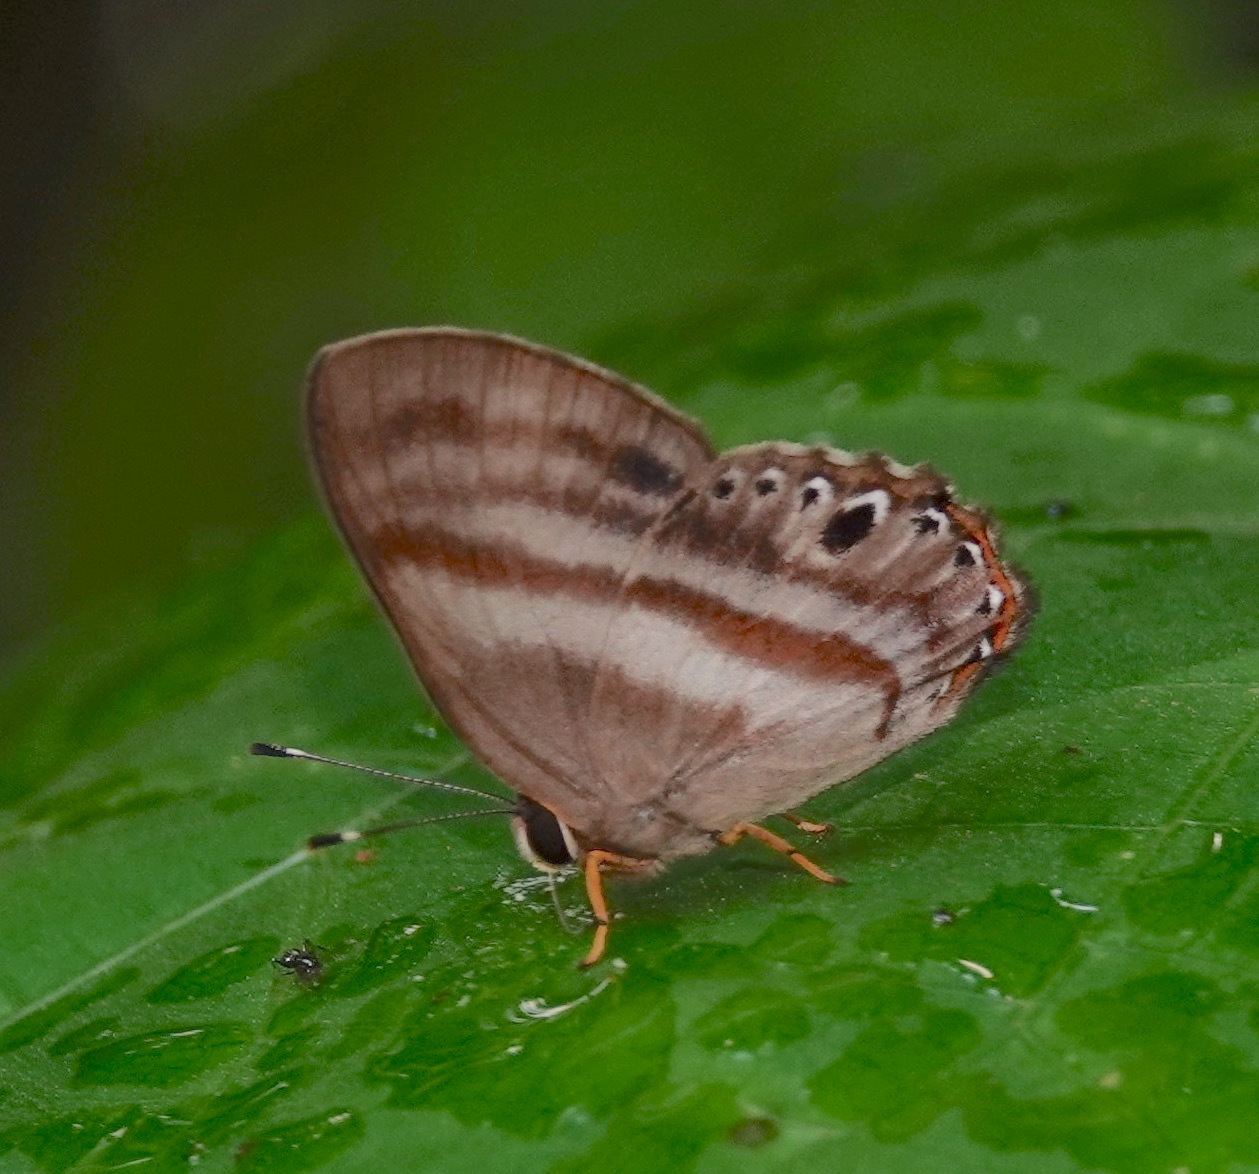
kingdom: Animalia
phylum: Arthropoda
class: Insecta
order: Lepidoptera
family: Riodinidae
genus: Pelolasia
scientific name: Pelolasia
